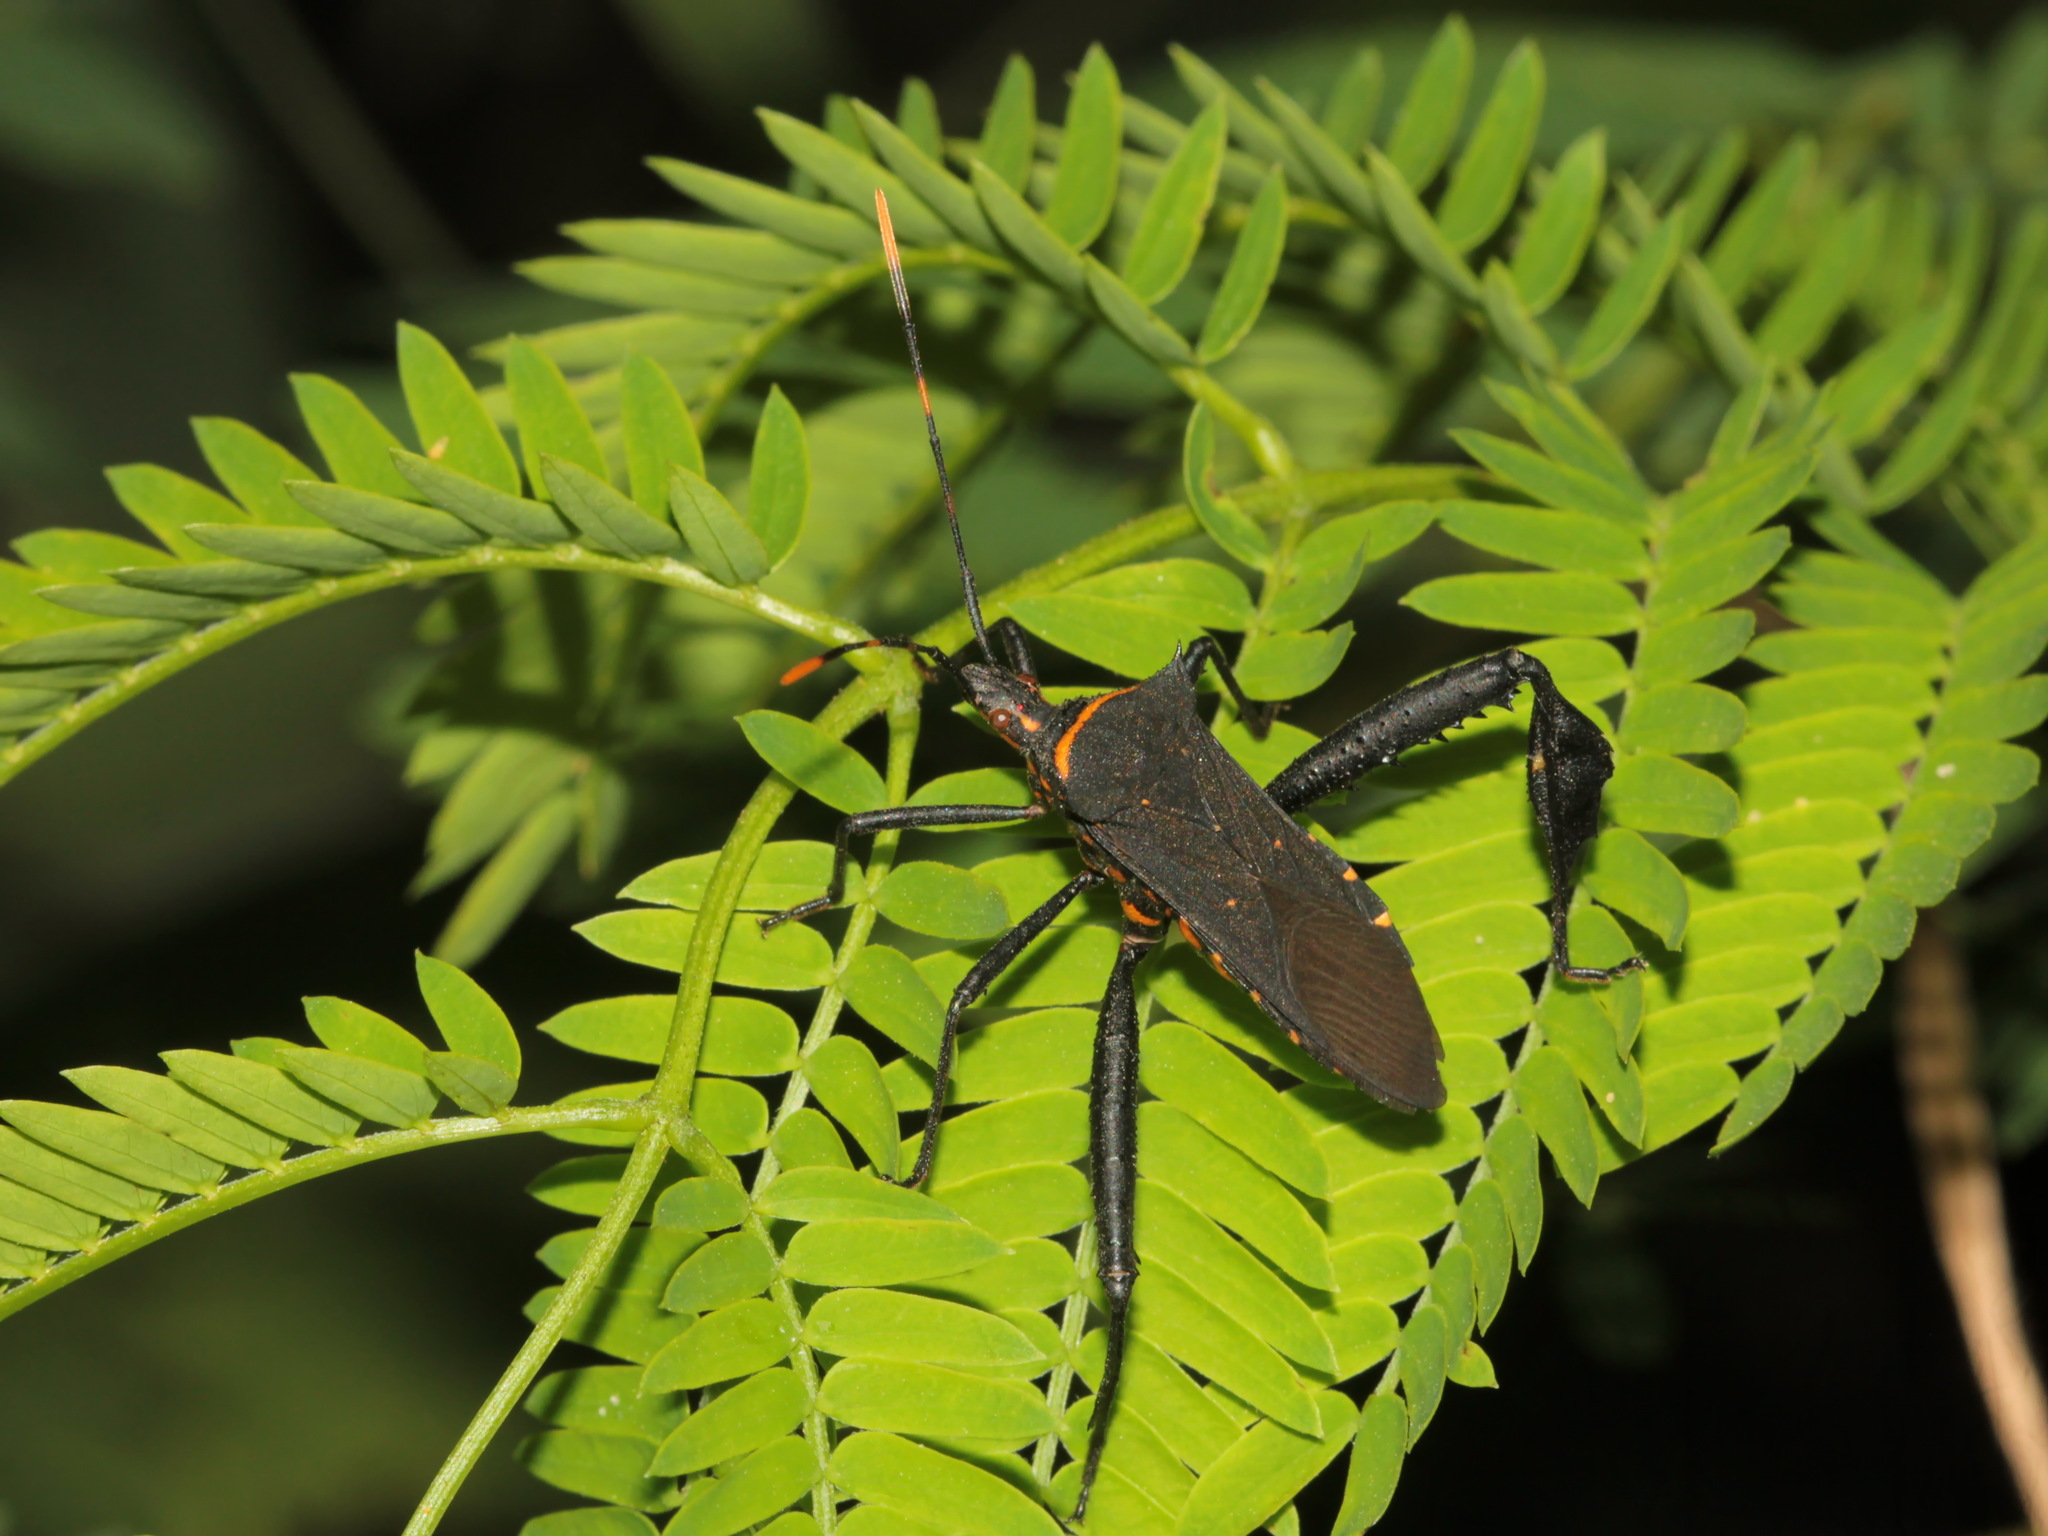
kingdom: Animalia
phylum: Arthropoda
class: Insecta
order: Hemiptera
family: Coreidae
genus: Leptoglossus
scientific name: Leptoglossus gonagra
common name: Citron bug
